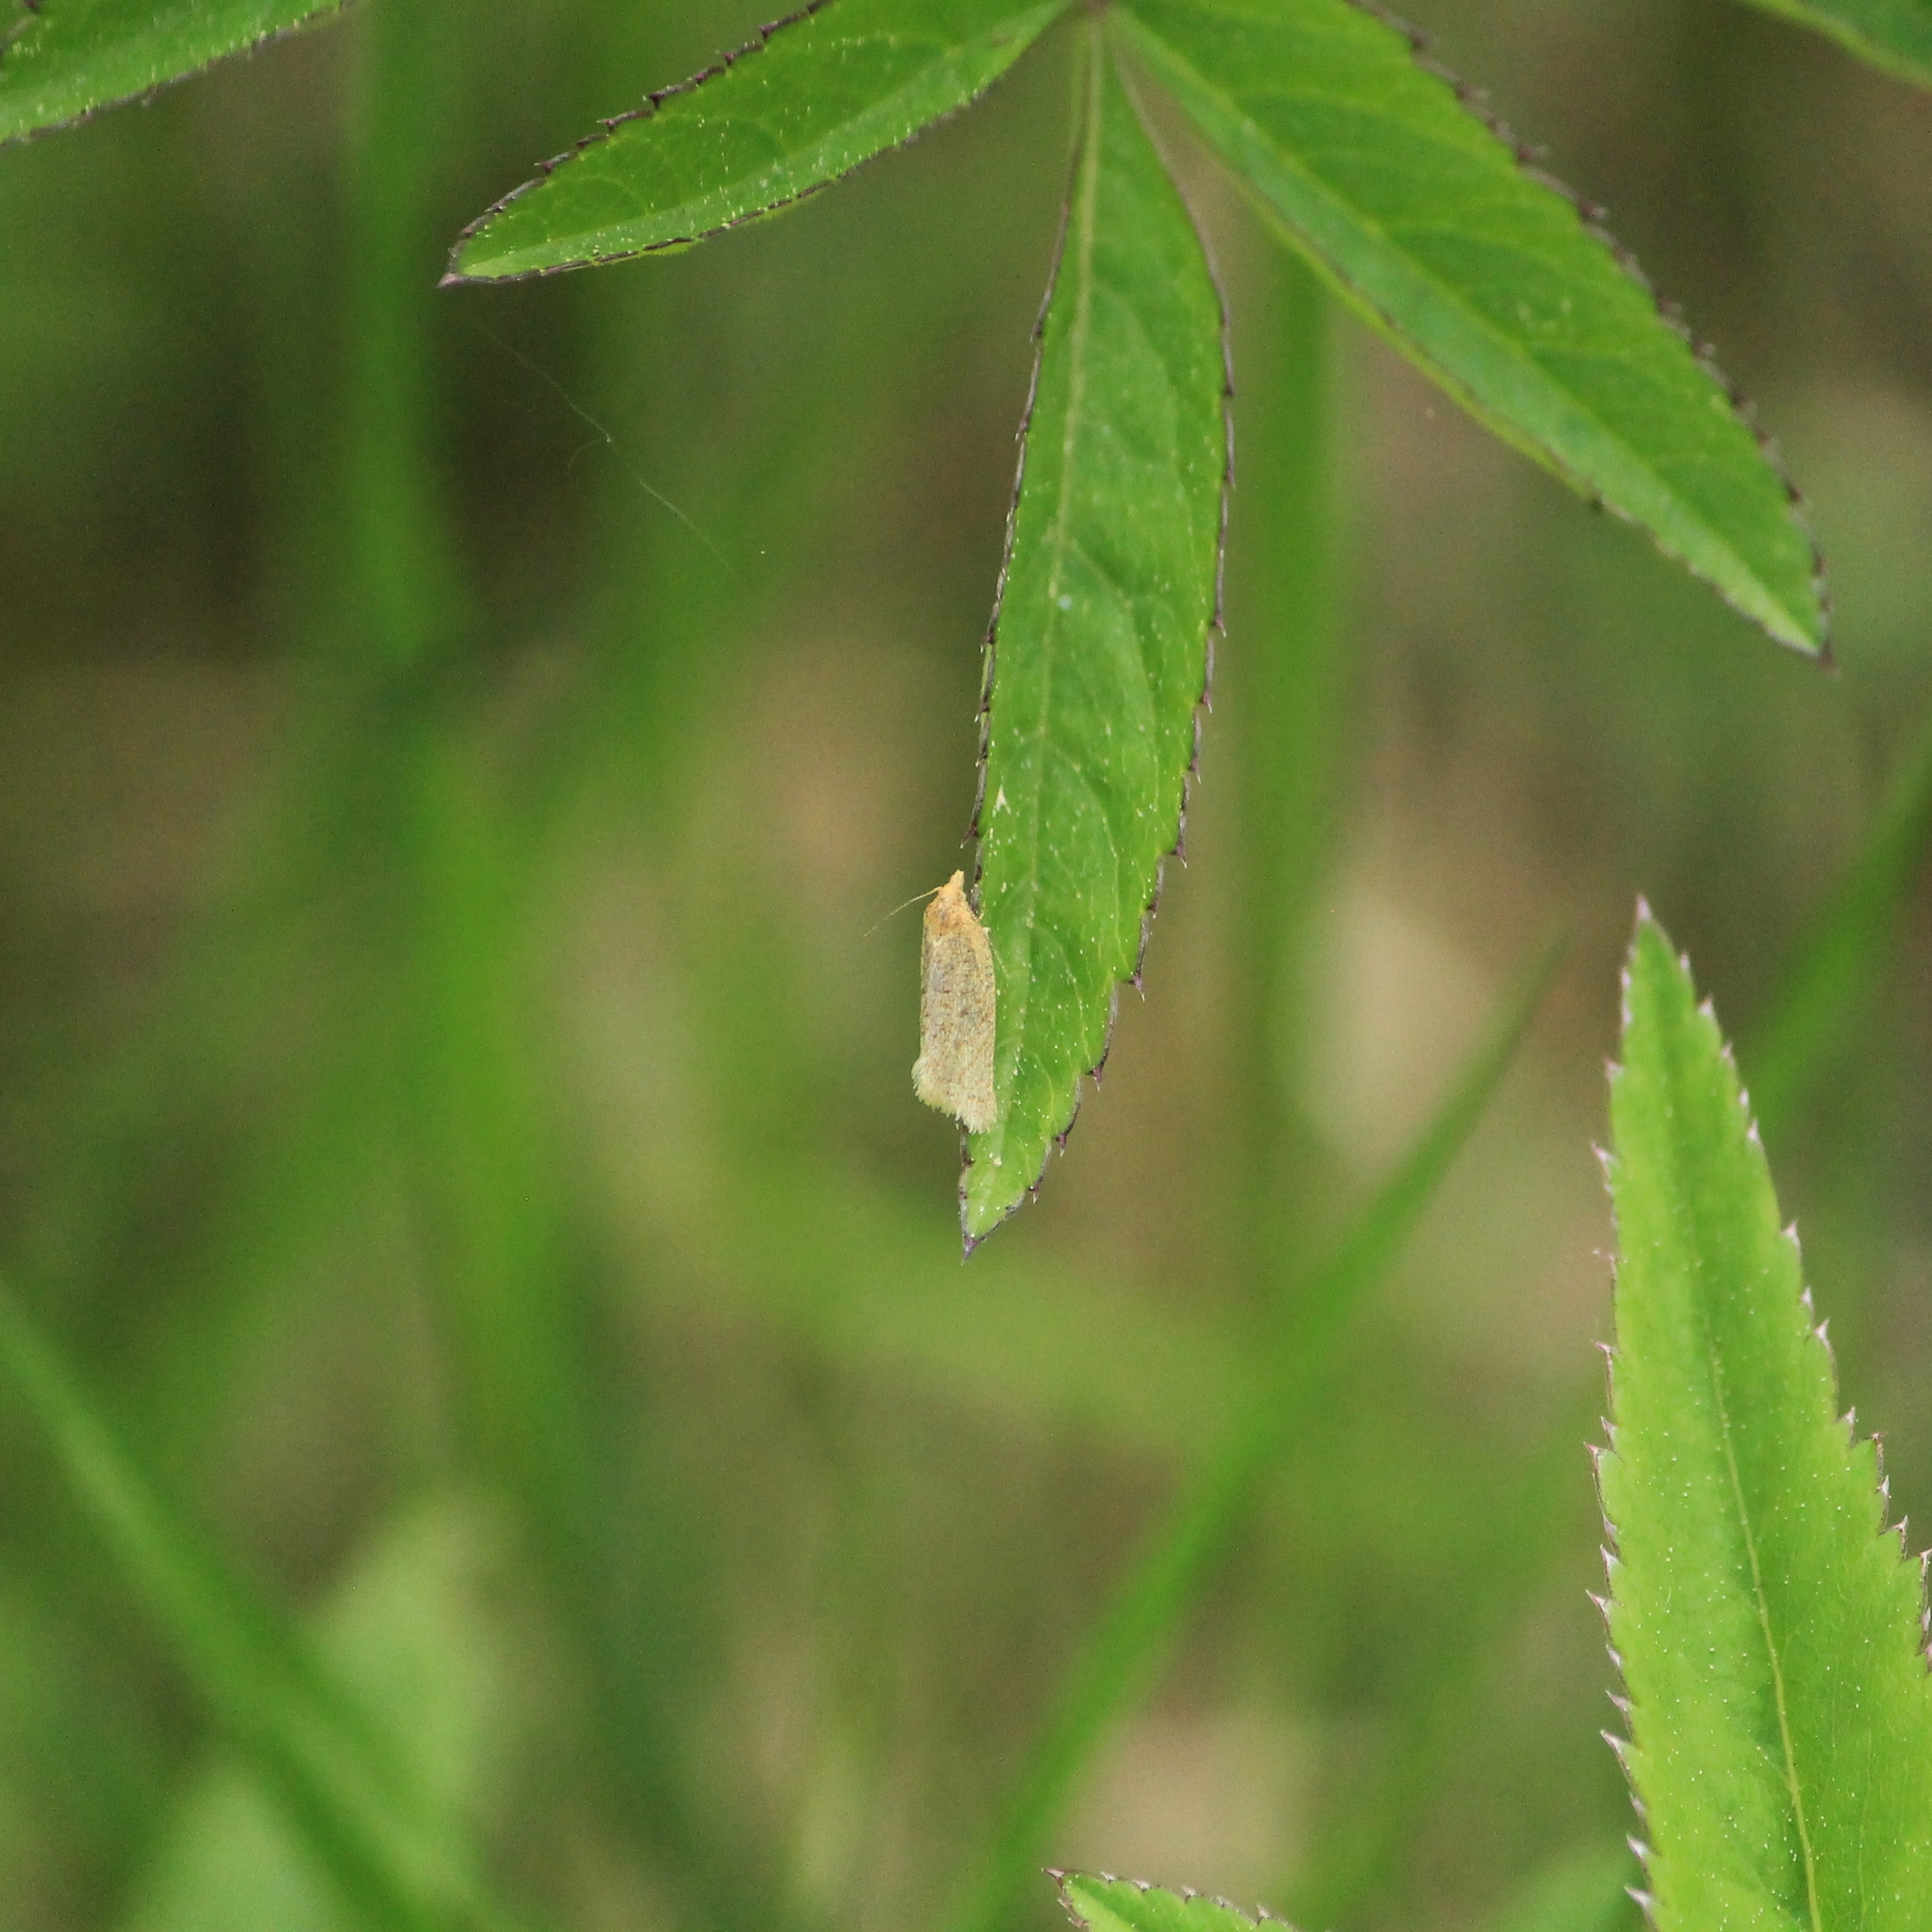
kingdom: Animalia
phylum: Arthropoda
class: Insecta
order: Lepidoptera
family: Tortricidae
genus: Clepsis
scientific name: Clepsis senecionana
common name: Obscure tortrix
